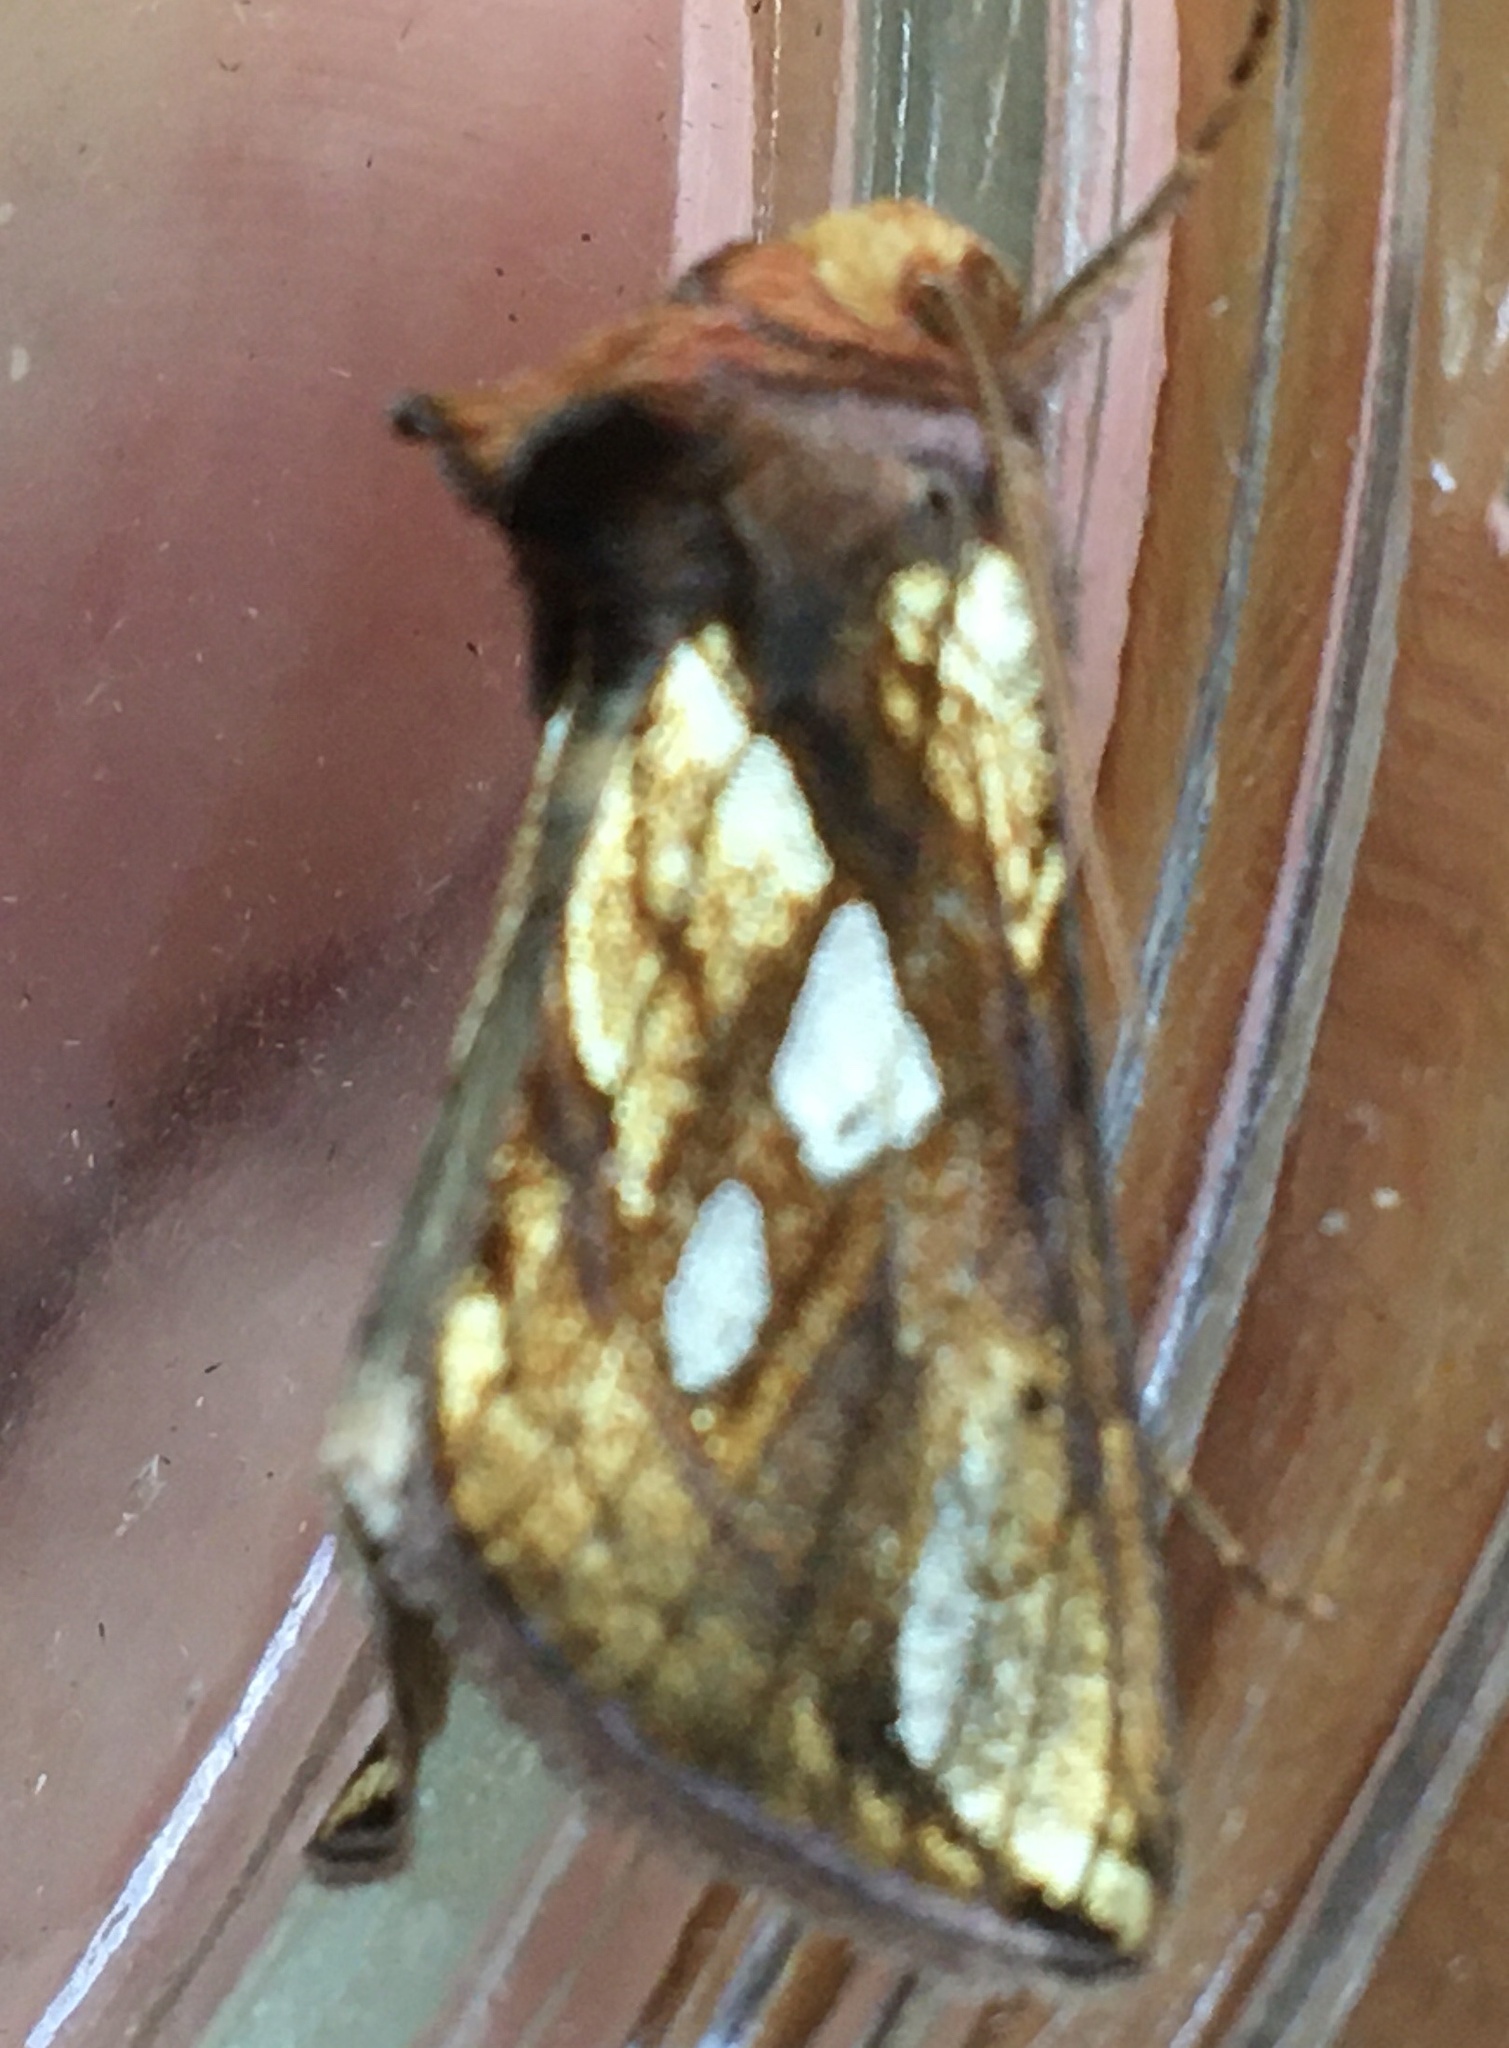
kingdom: Animalia
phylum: Arthropoda
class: Insecta
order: Lepidoptera
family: Noctuidae
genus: Plusia
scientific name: Plusia festucae
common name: Gold spot
